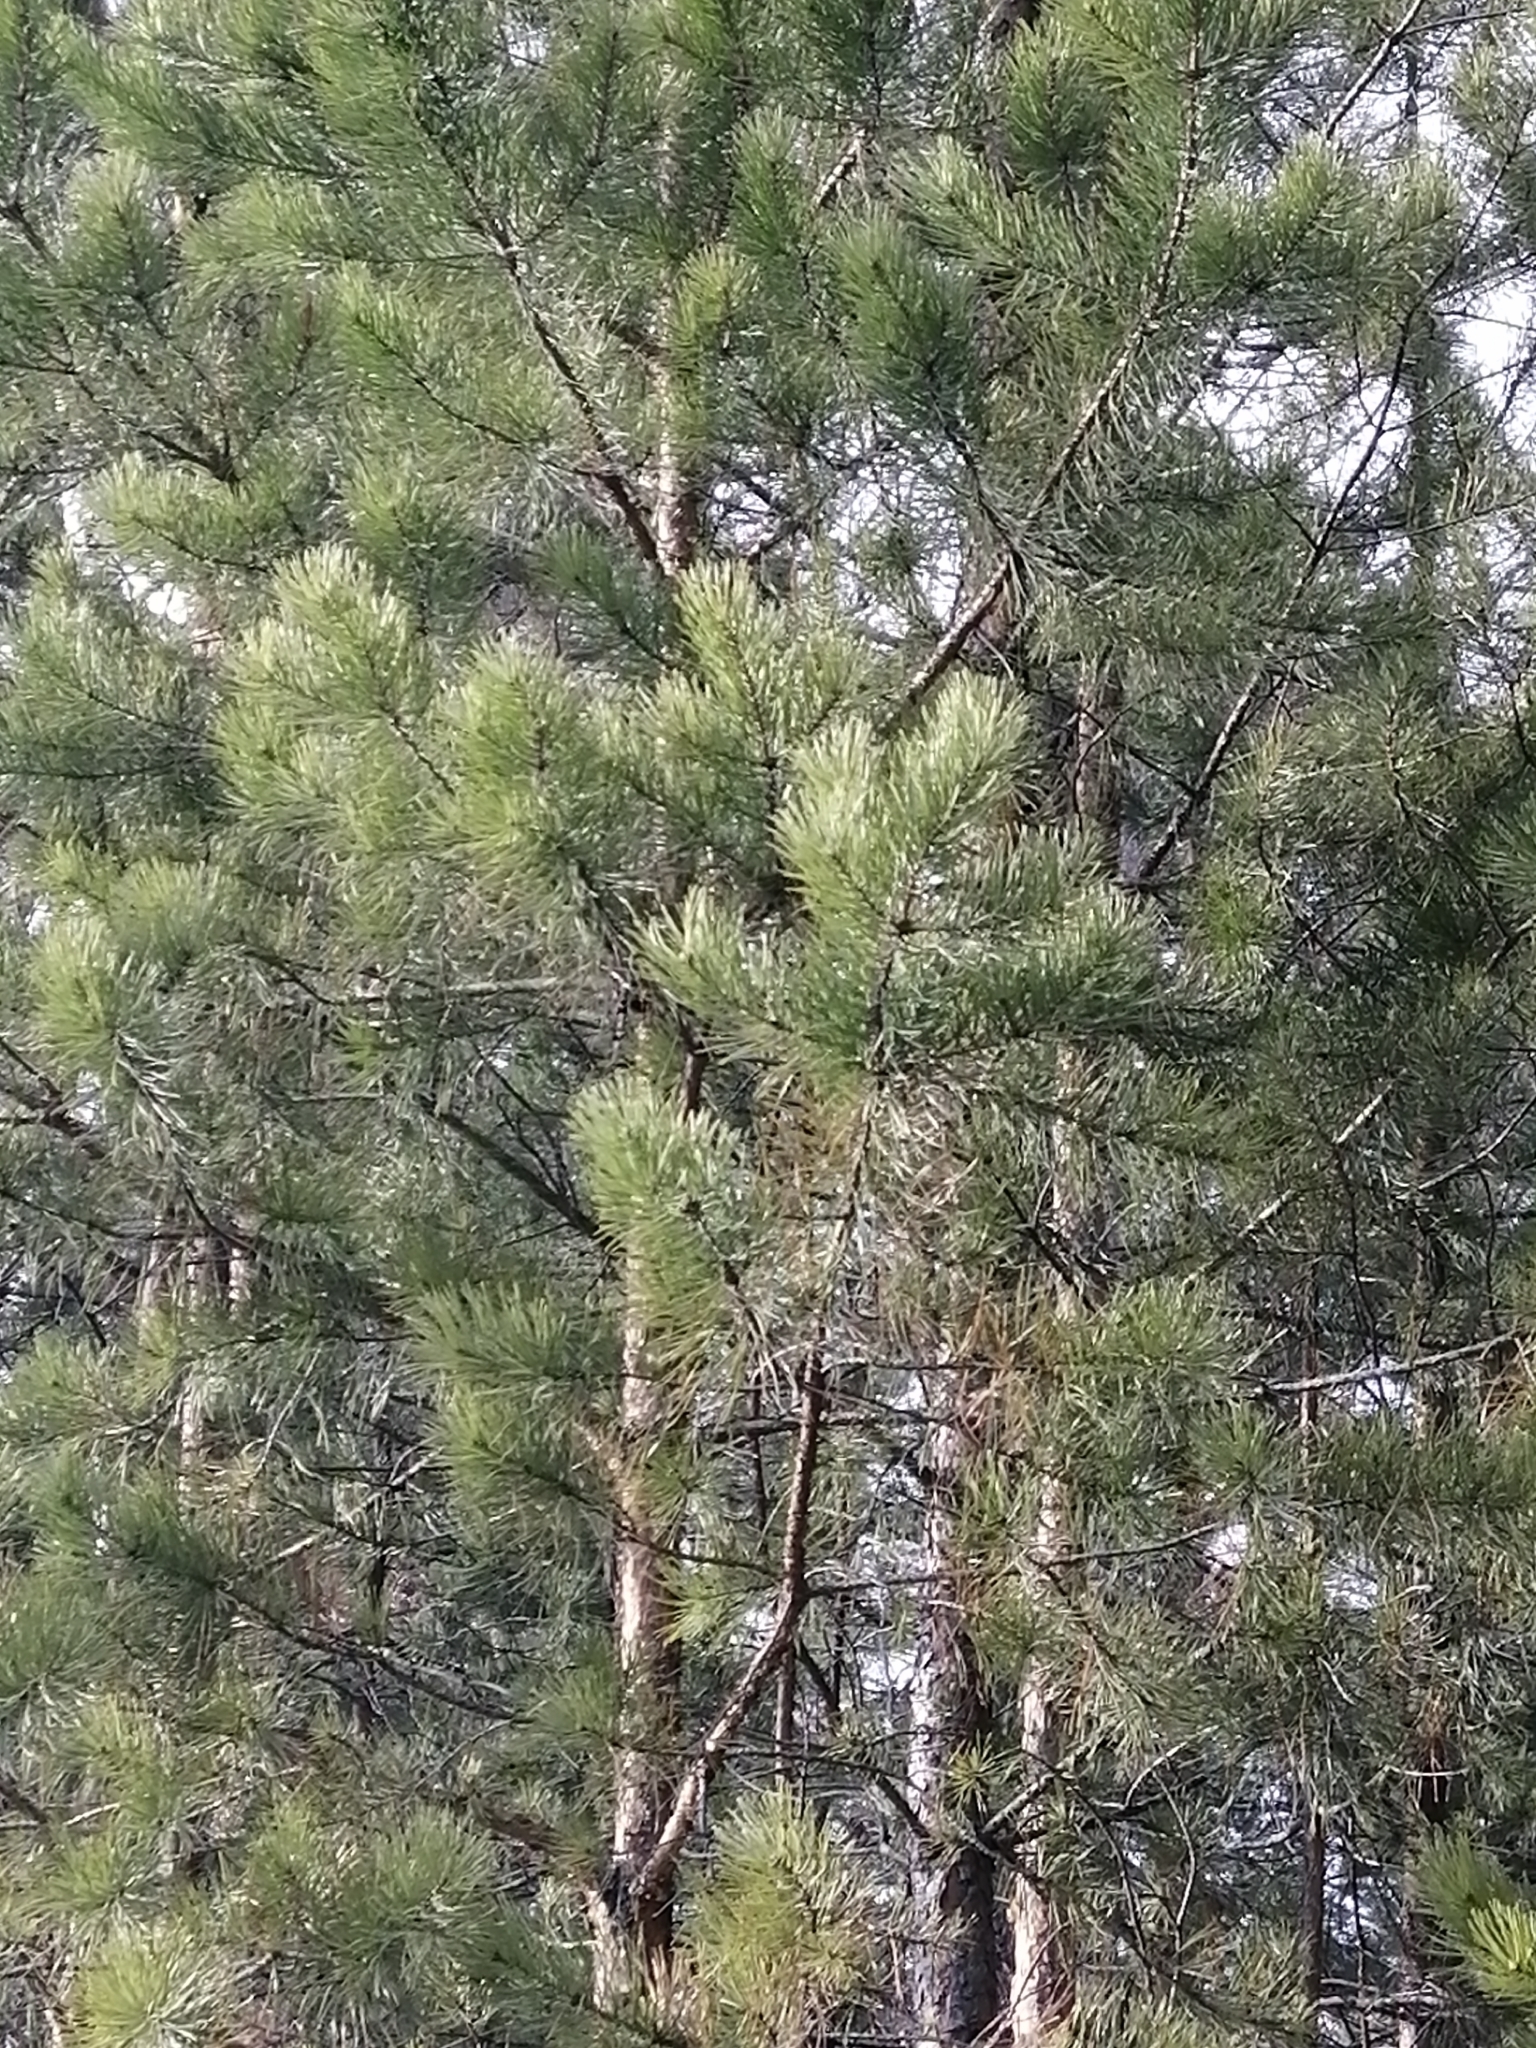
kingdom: Plantae
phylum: Tracheophyta
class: Pinopsida
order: Pinales
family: Pinaceae
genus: Pinus
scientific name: Pinus sylvestris
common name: Scots pine
